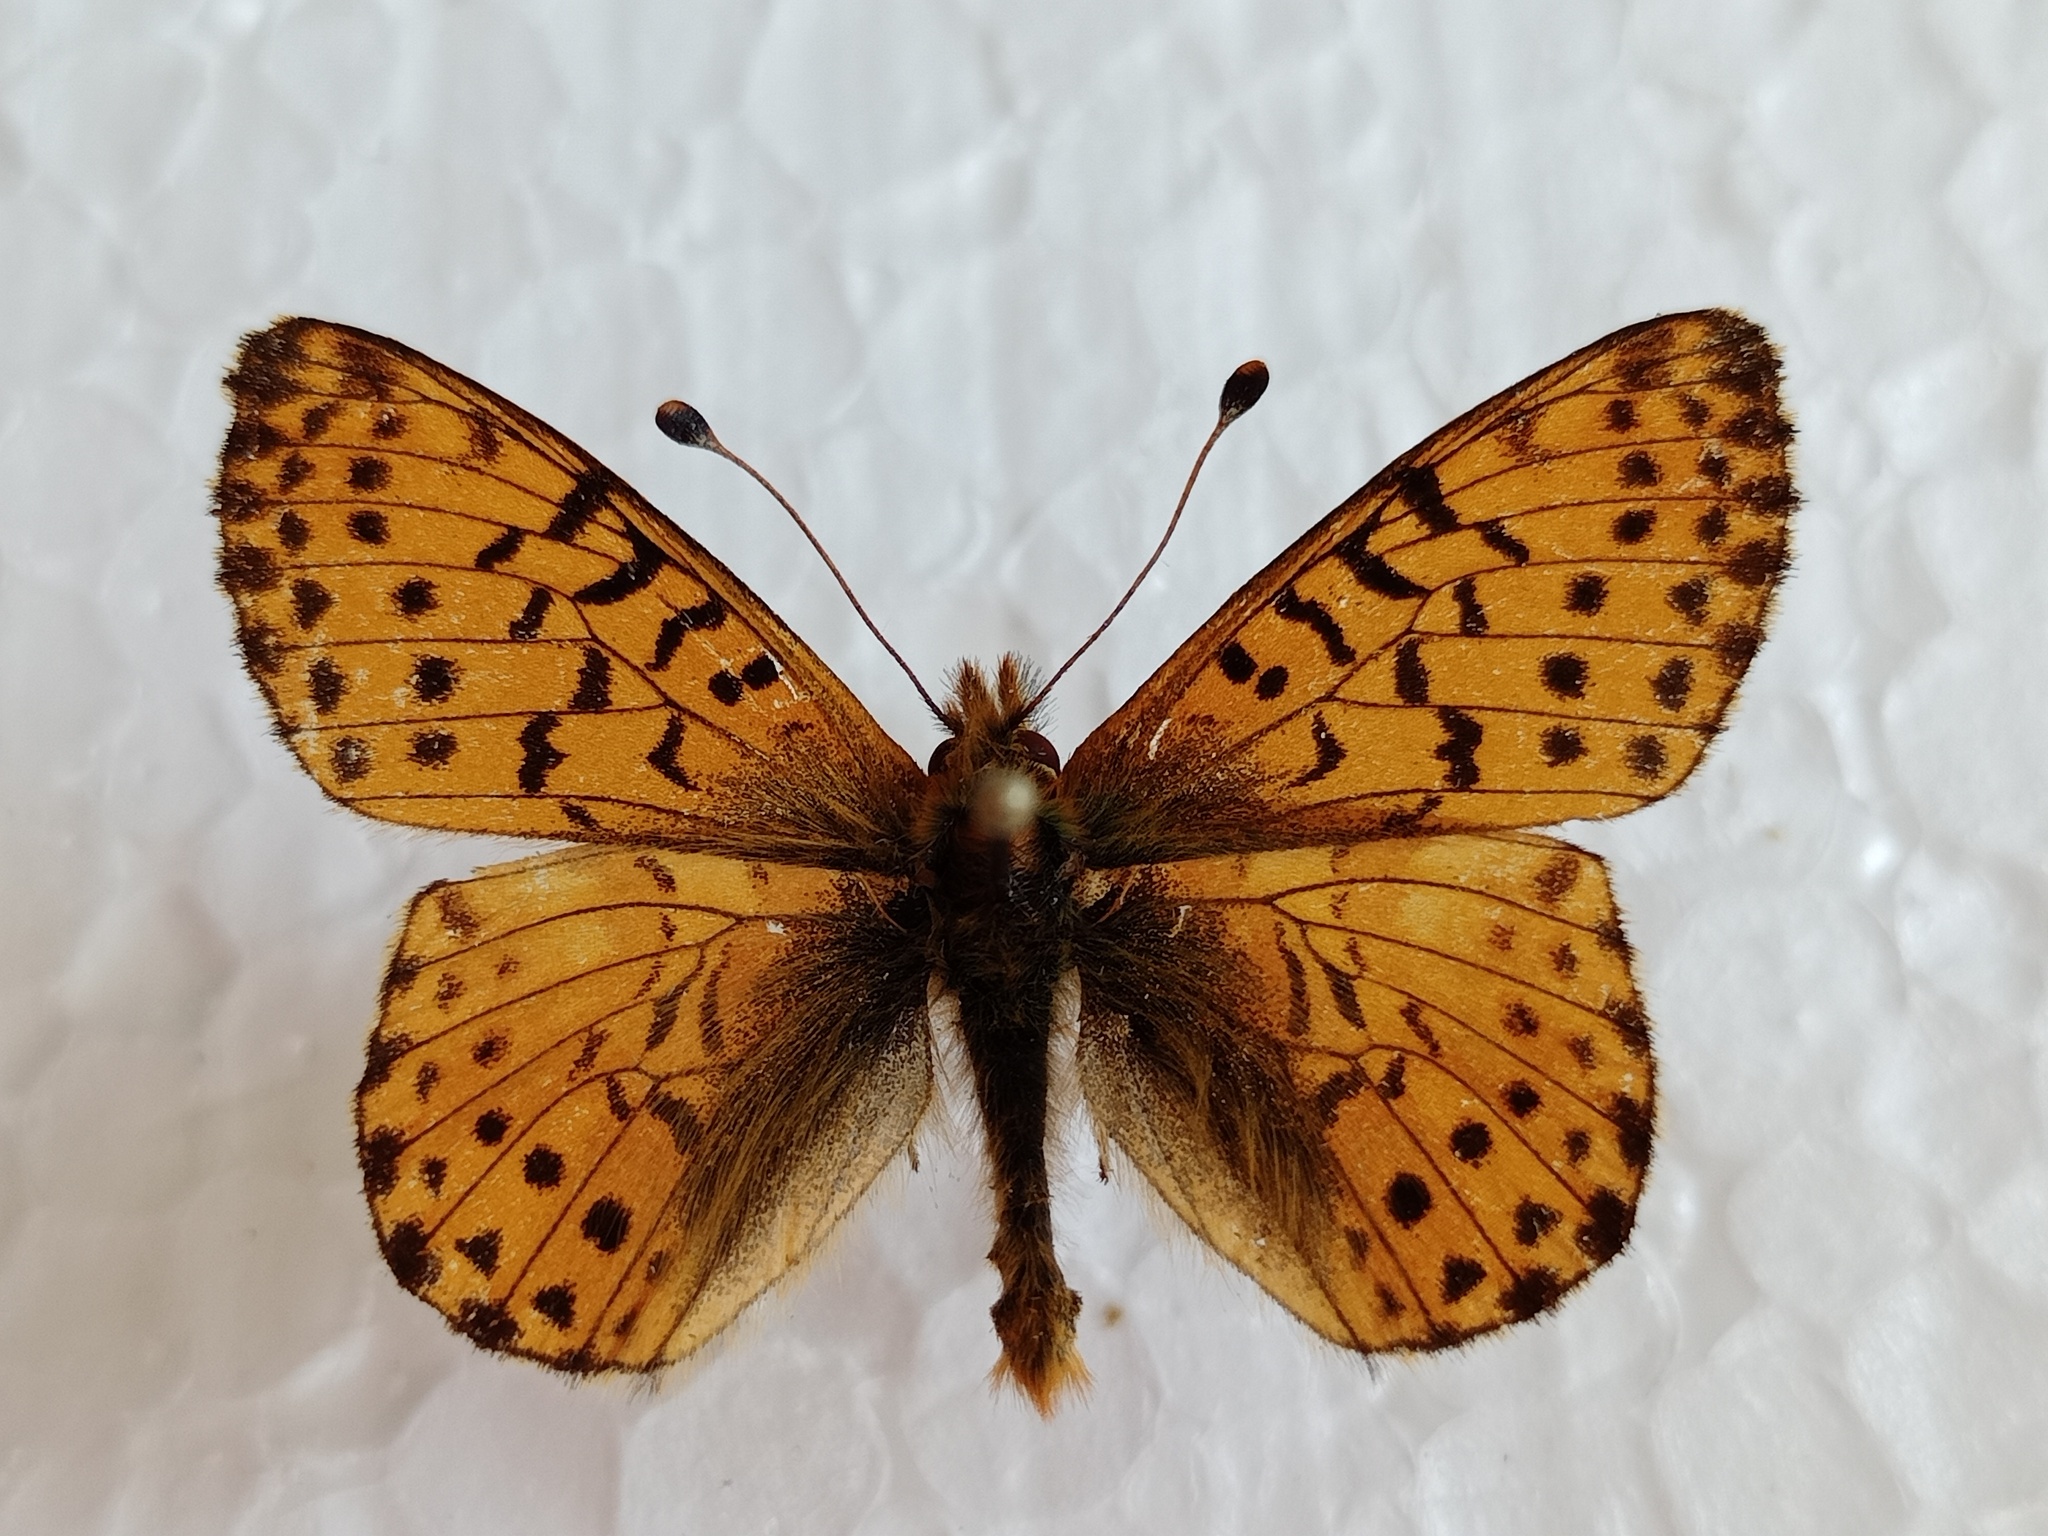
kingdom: Animalia
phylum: Arthropoda
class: Insecta
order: Lepidoptera
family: Nymphalidae
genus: Boloria
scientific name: Boloria pales
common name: Shepherd's fritillary
